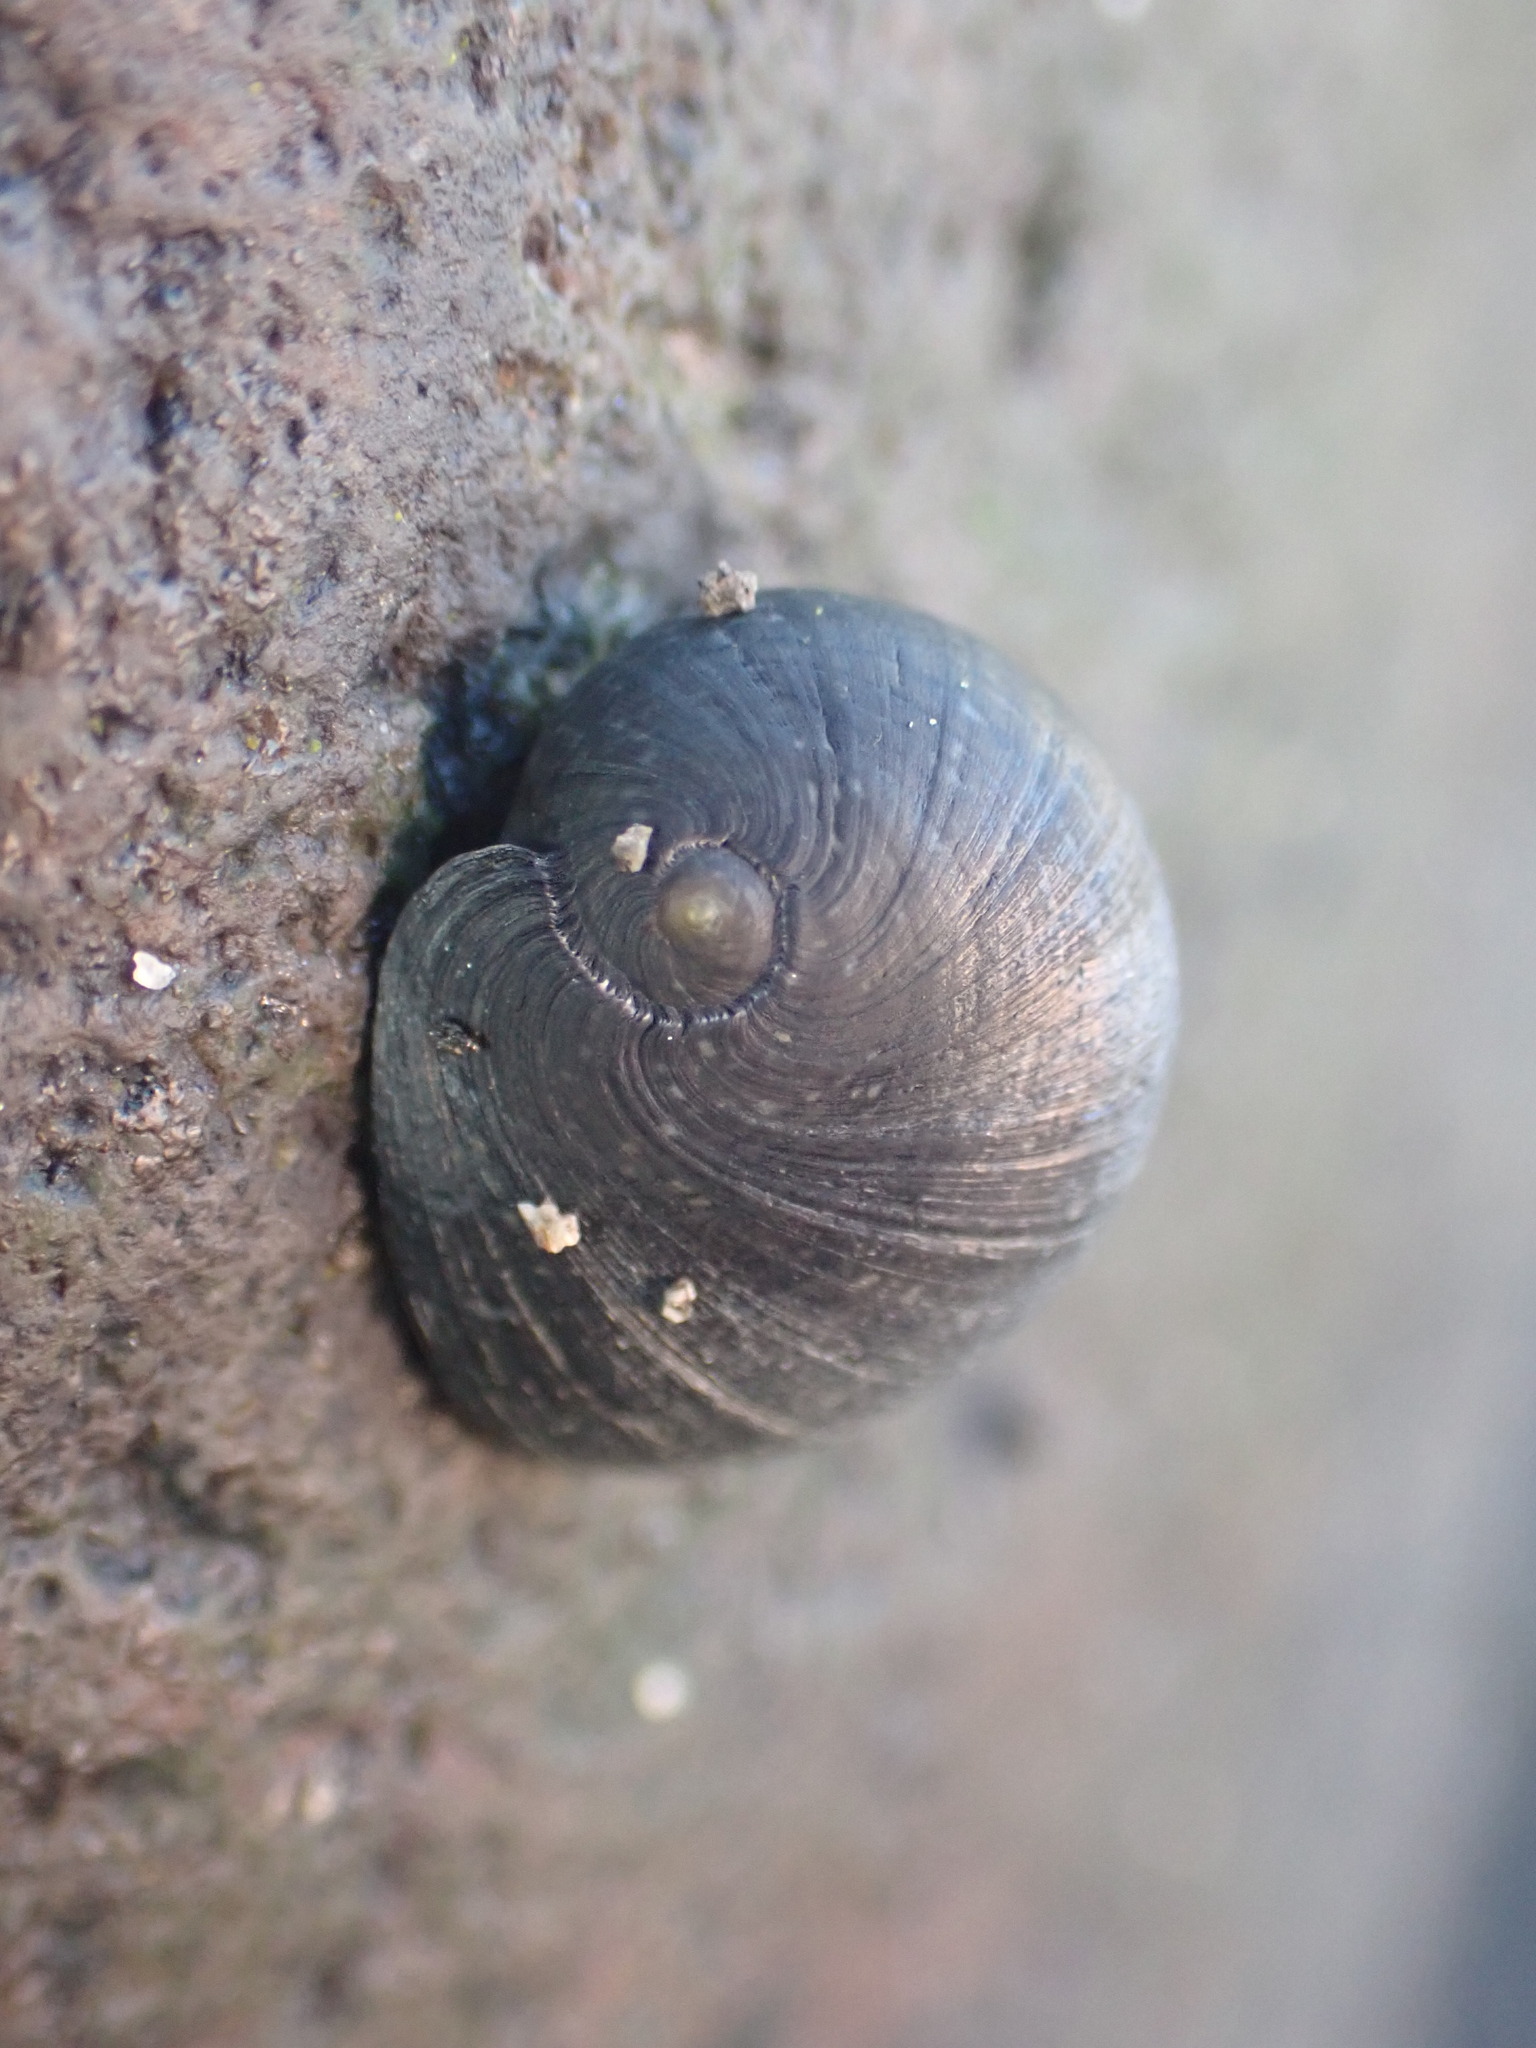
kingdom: Animalia
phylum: Mollusca
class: Gastropoda
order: Cycloneritida
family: Neritidae
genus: Nerita
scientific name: Nerita melanotragus
